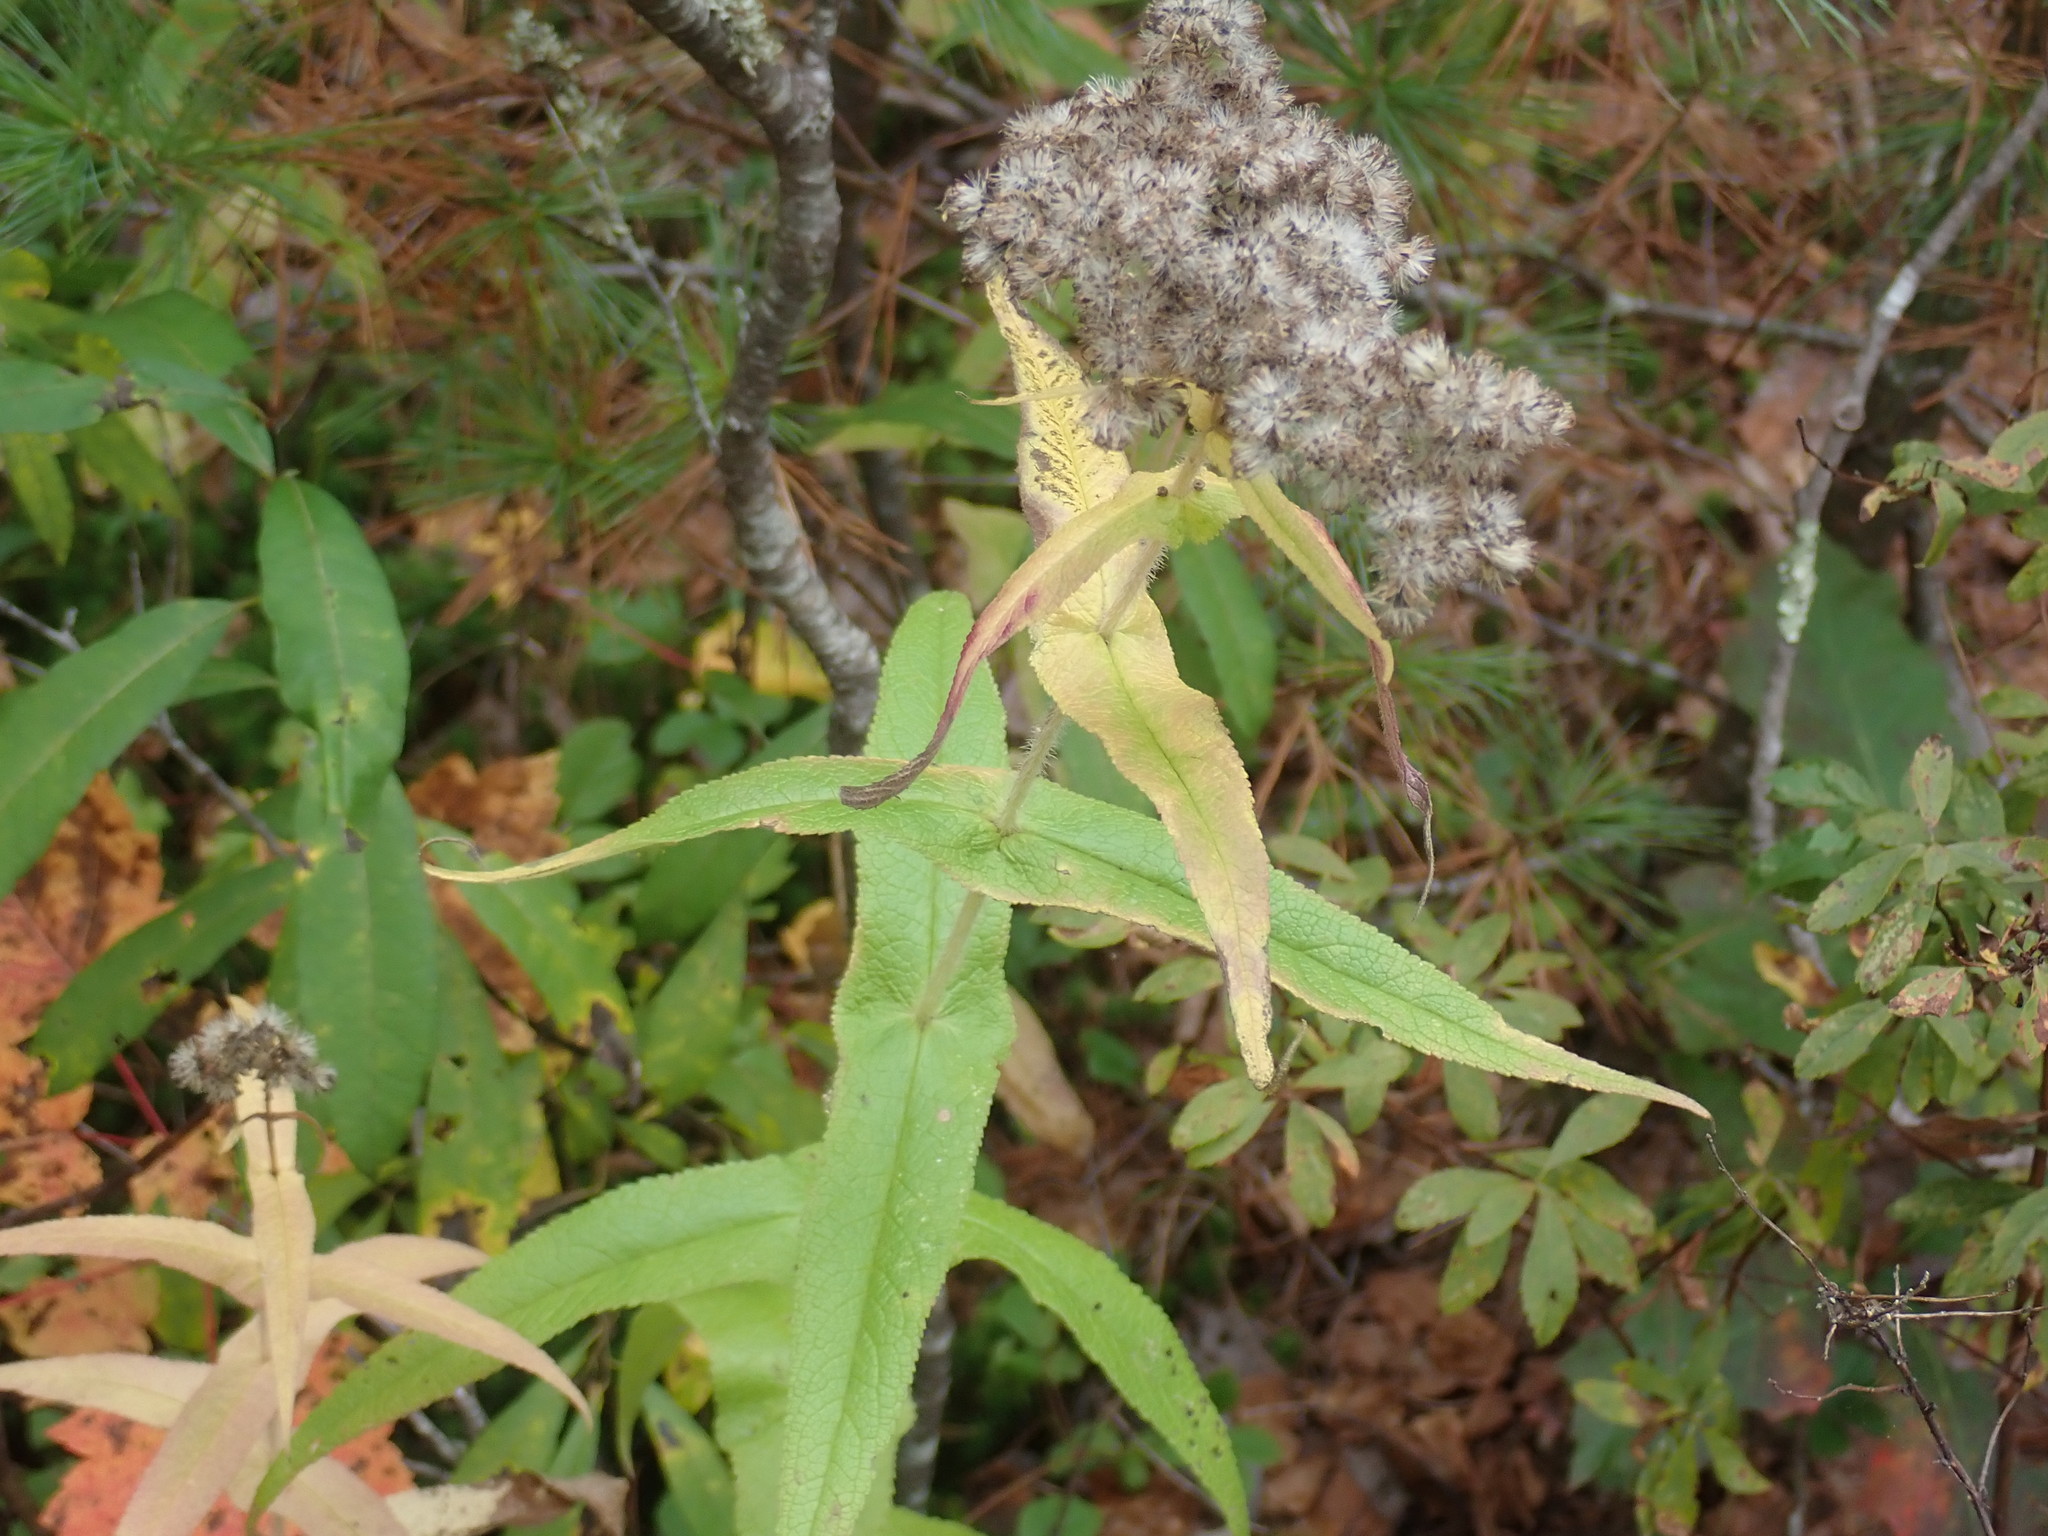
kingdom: Plantae
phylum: Tracheophyta
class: Magnoliopsida
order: Asterales
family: Asteraceae
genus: Eupatorium
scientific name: Eupatorium perfoliatum
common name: Boneset
